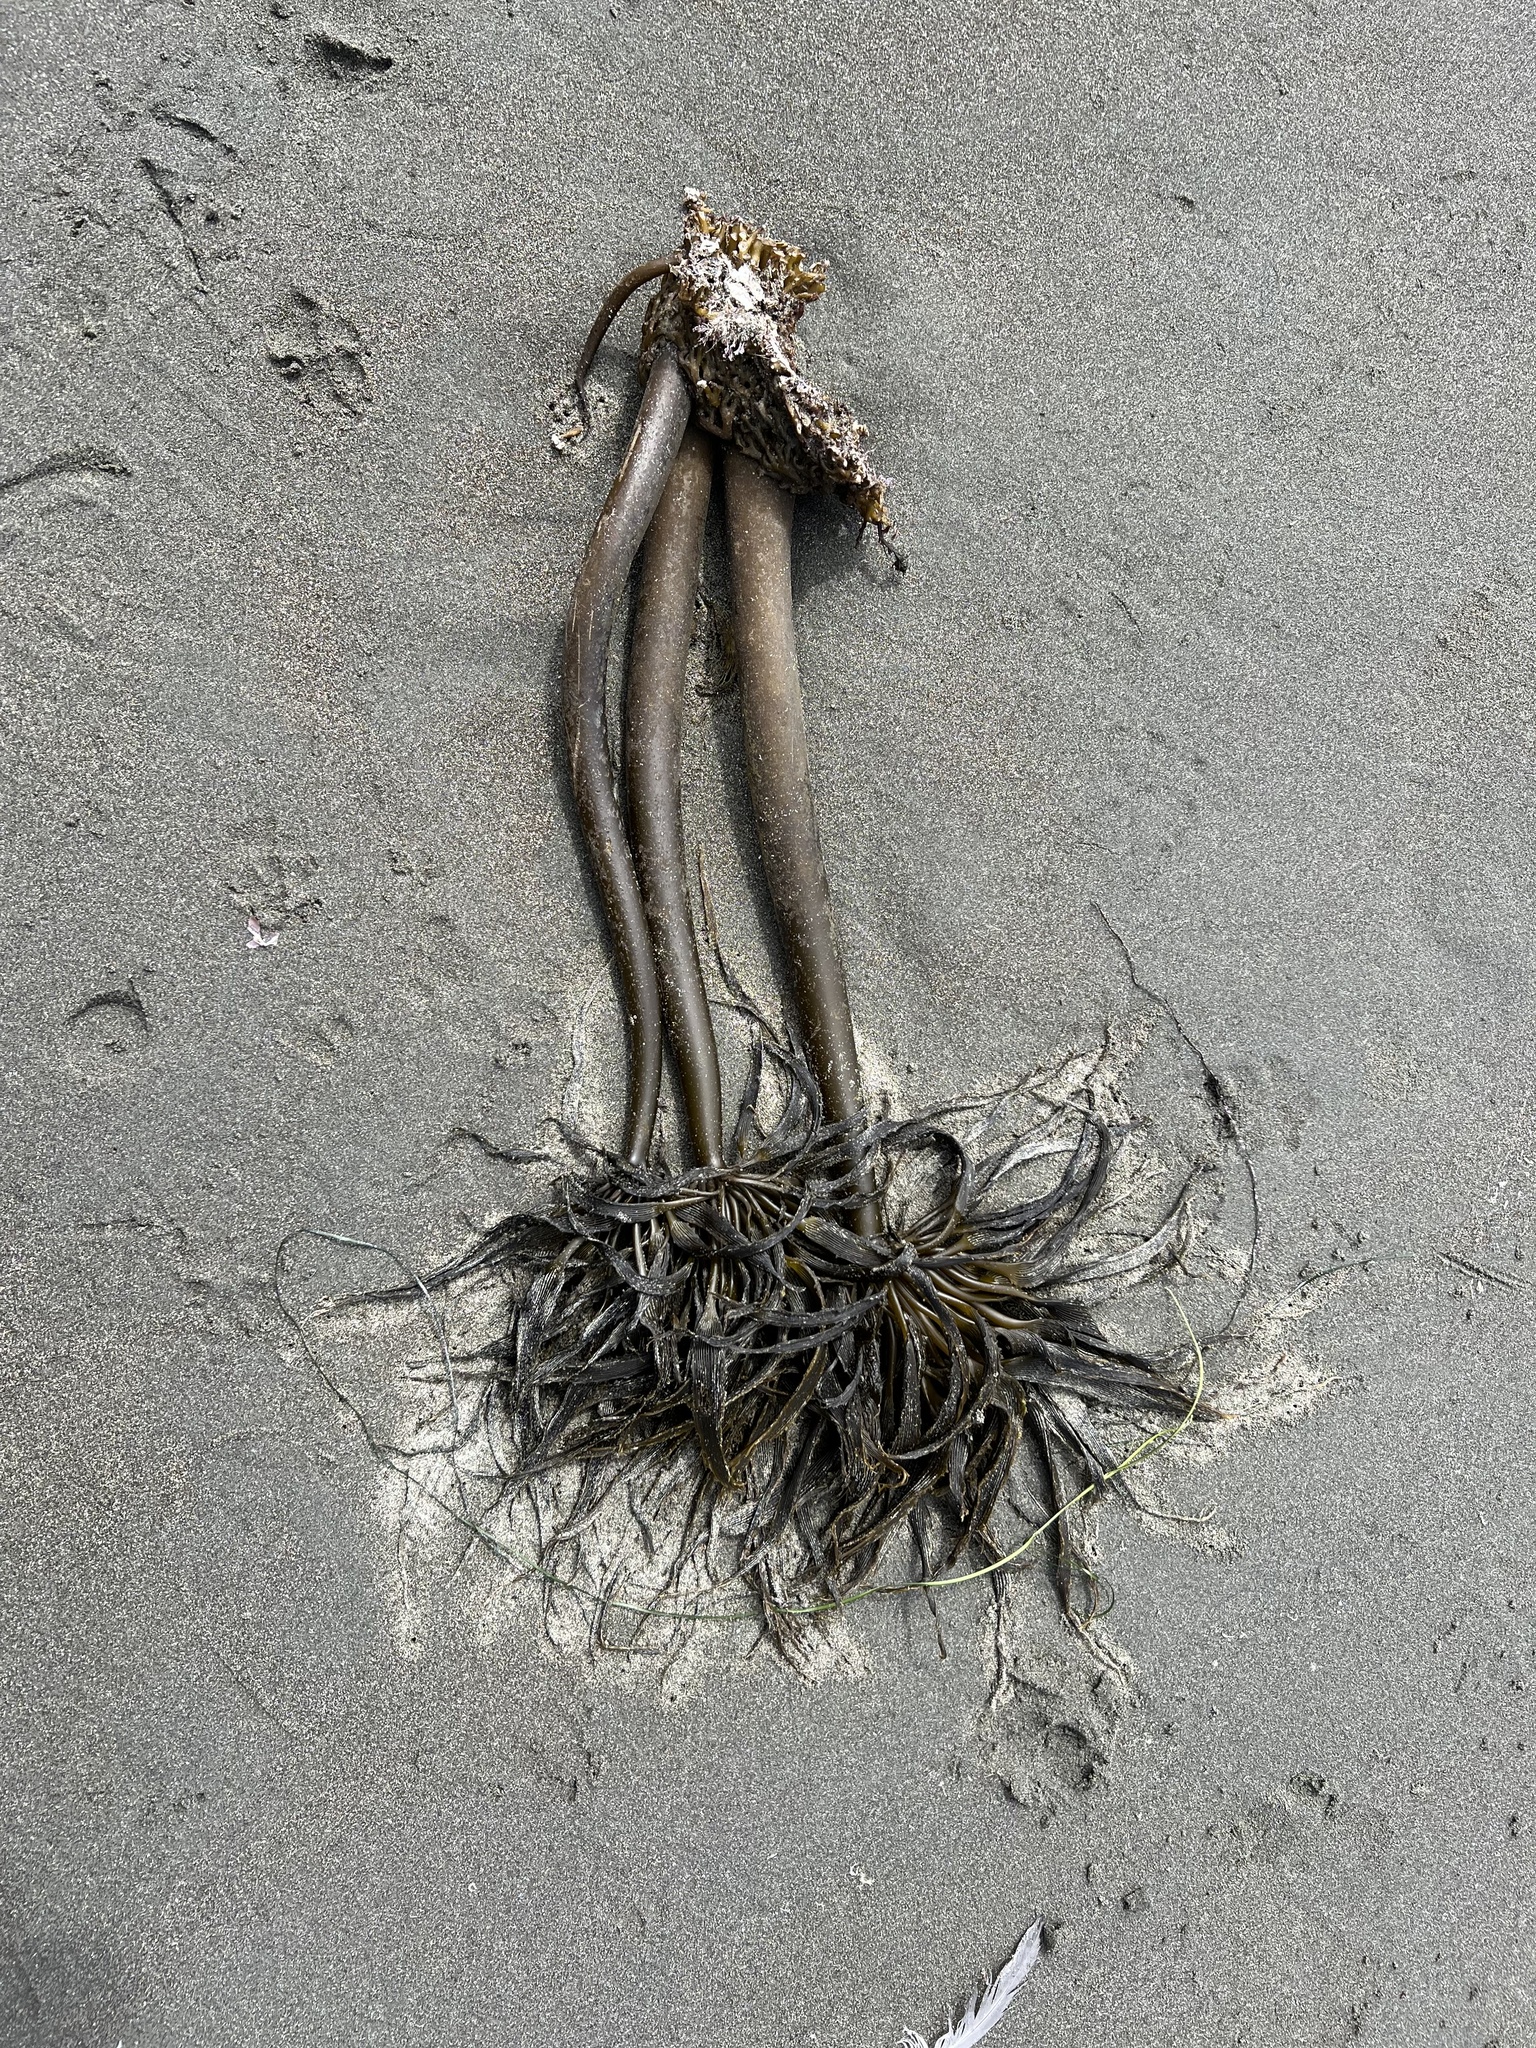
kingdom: Chromista
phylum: Ochrophyta
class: Phaeophyceae
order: Laminariales
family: Laminariaceae
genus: Postelsia
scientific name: Postelsia palmiformis
